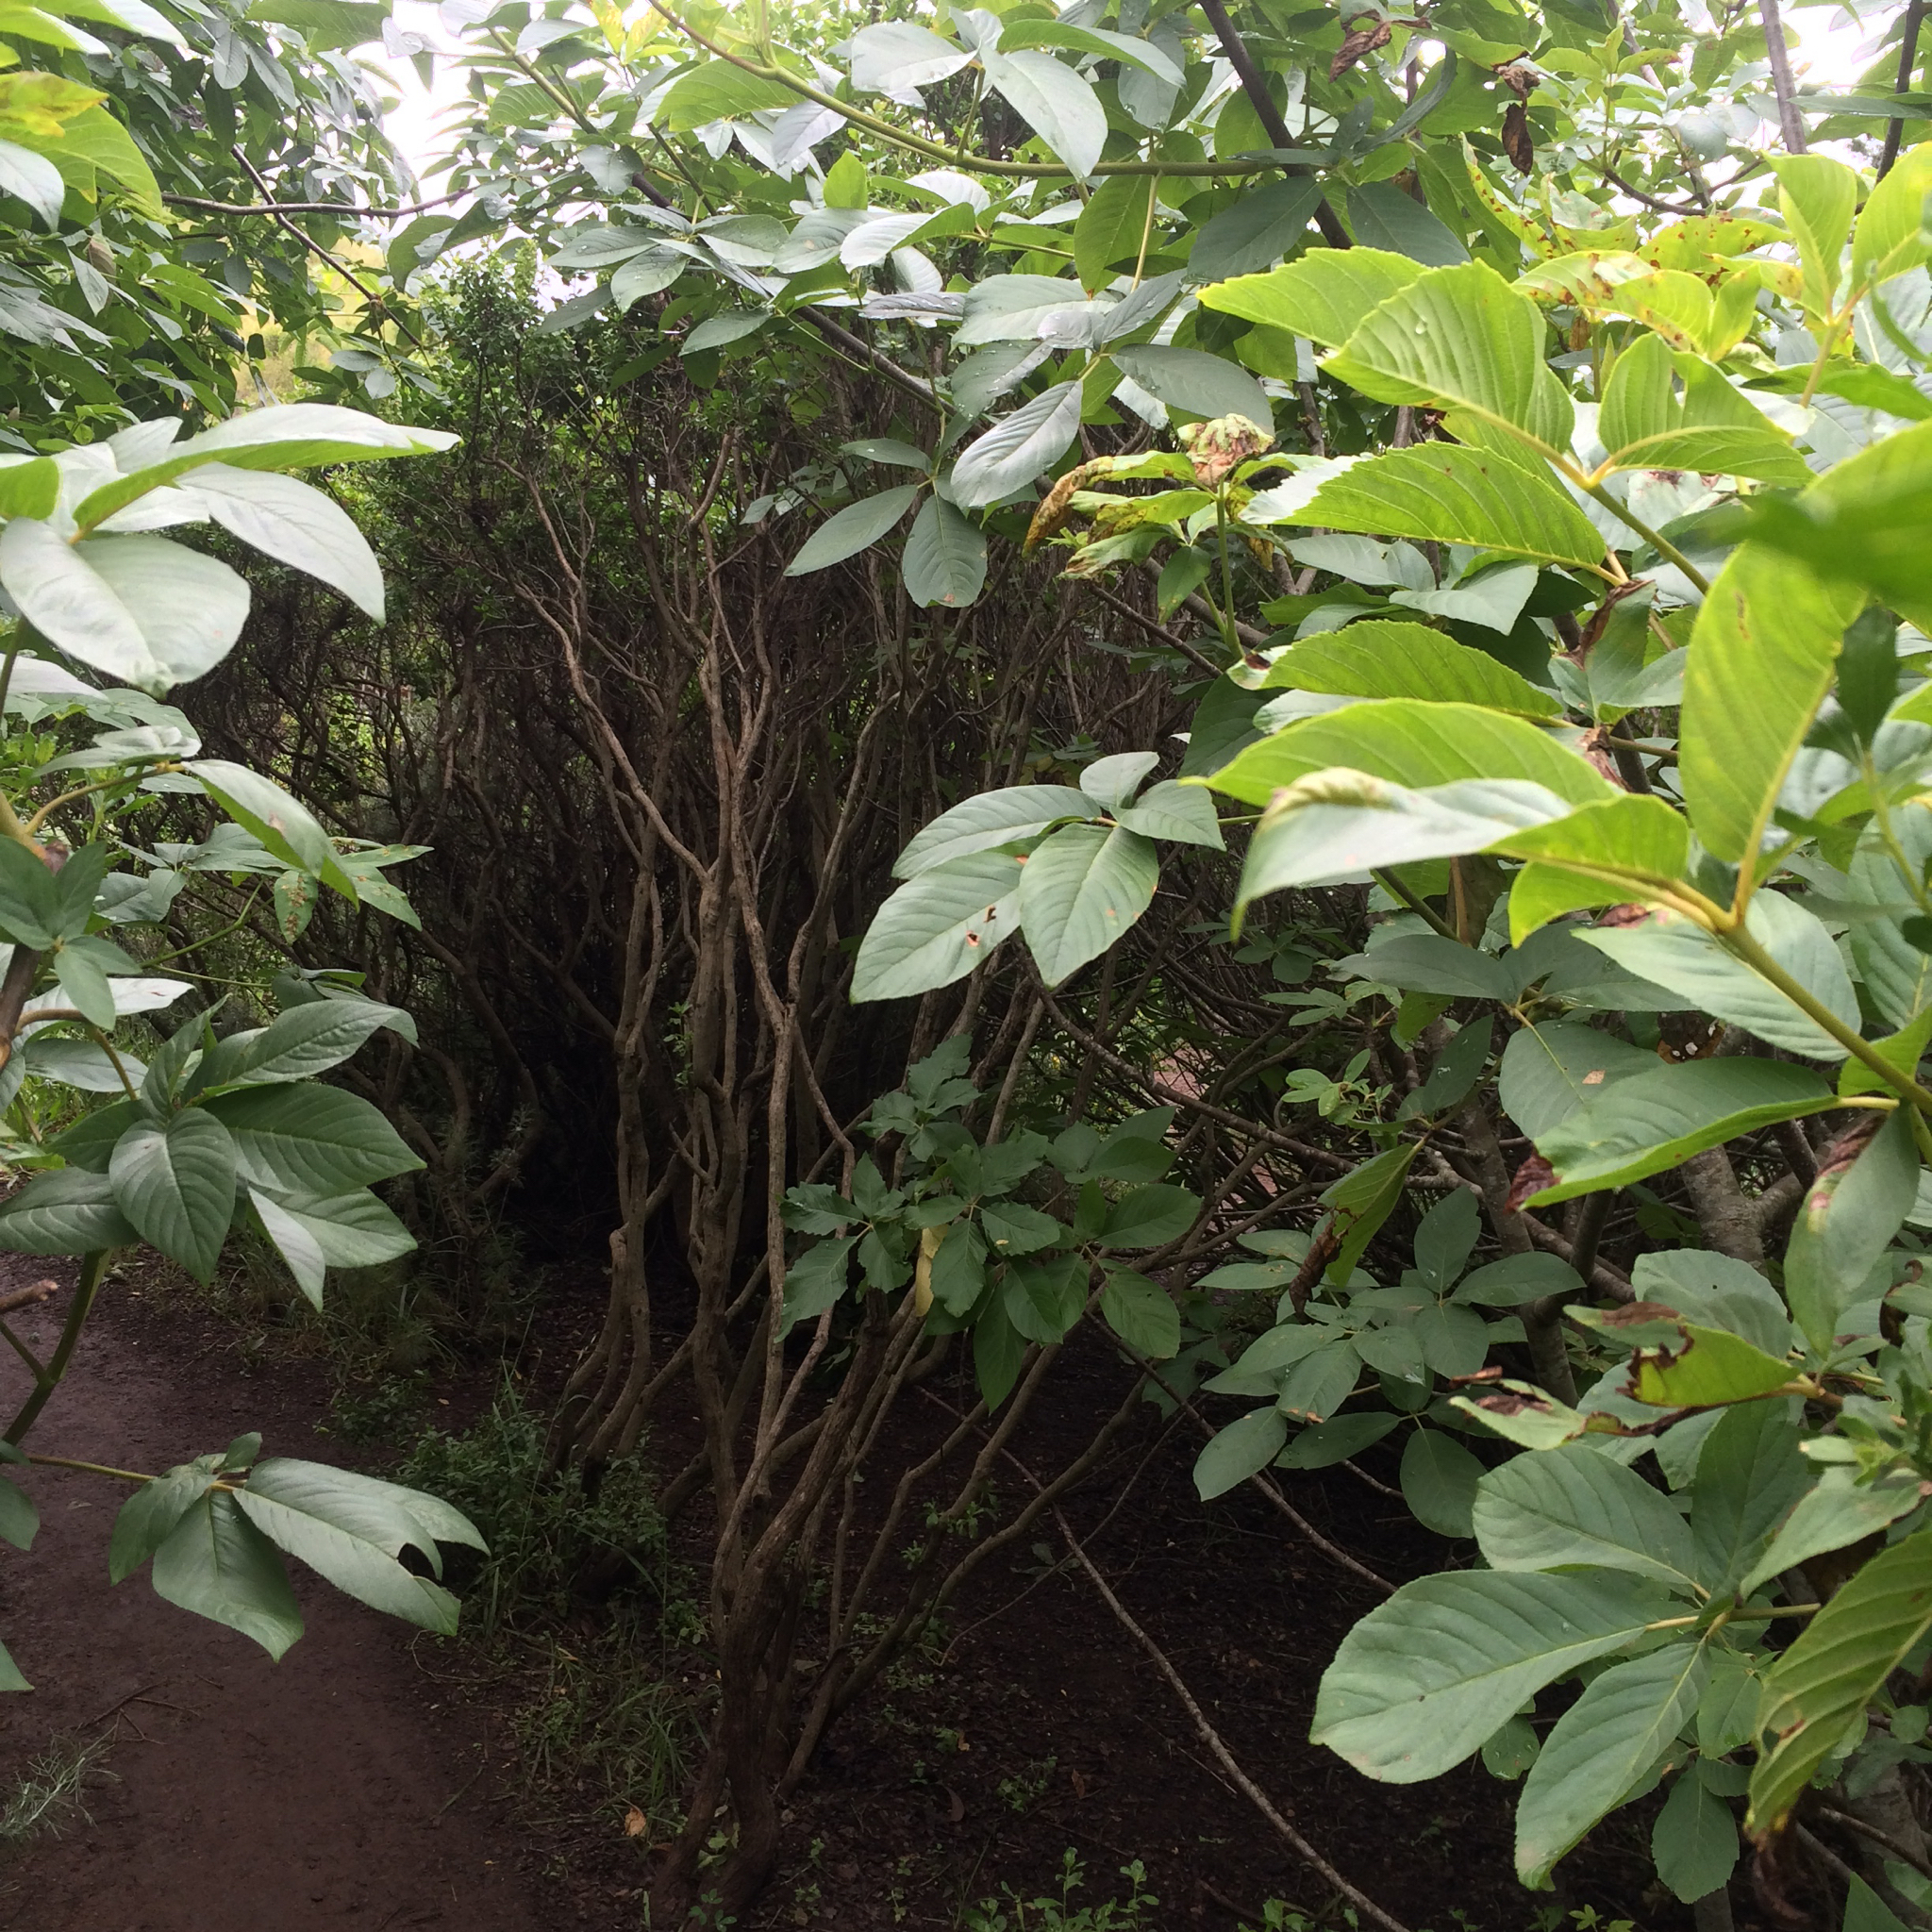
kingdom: Plantae
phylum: Tracheophyta
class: Magnoliopsida
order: Sapindales
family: Sapindaceae
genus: Aesculus
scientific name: Aesculus californica
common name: California buckeye
